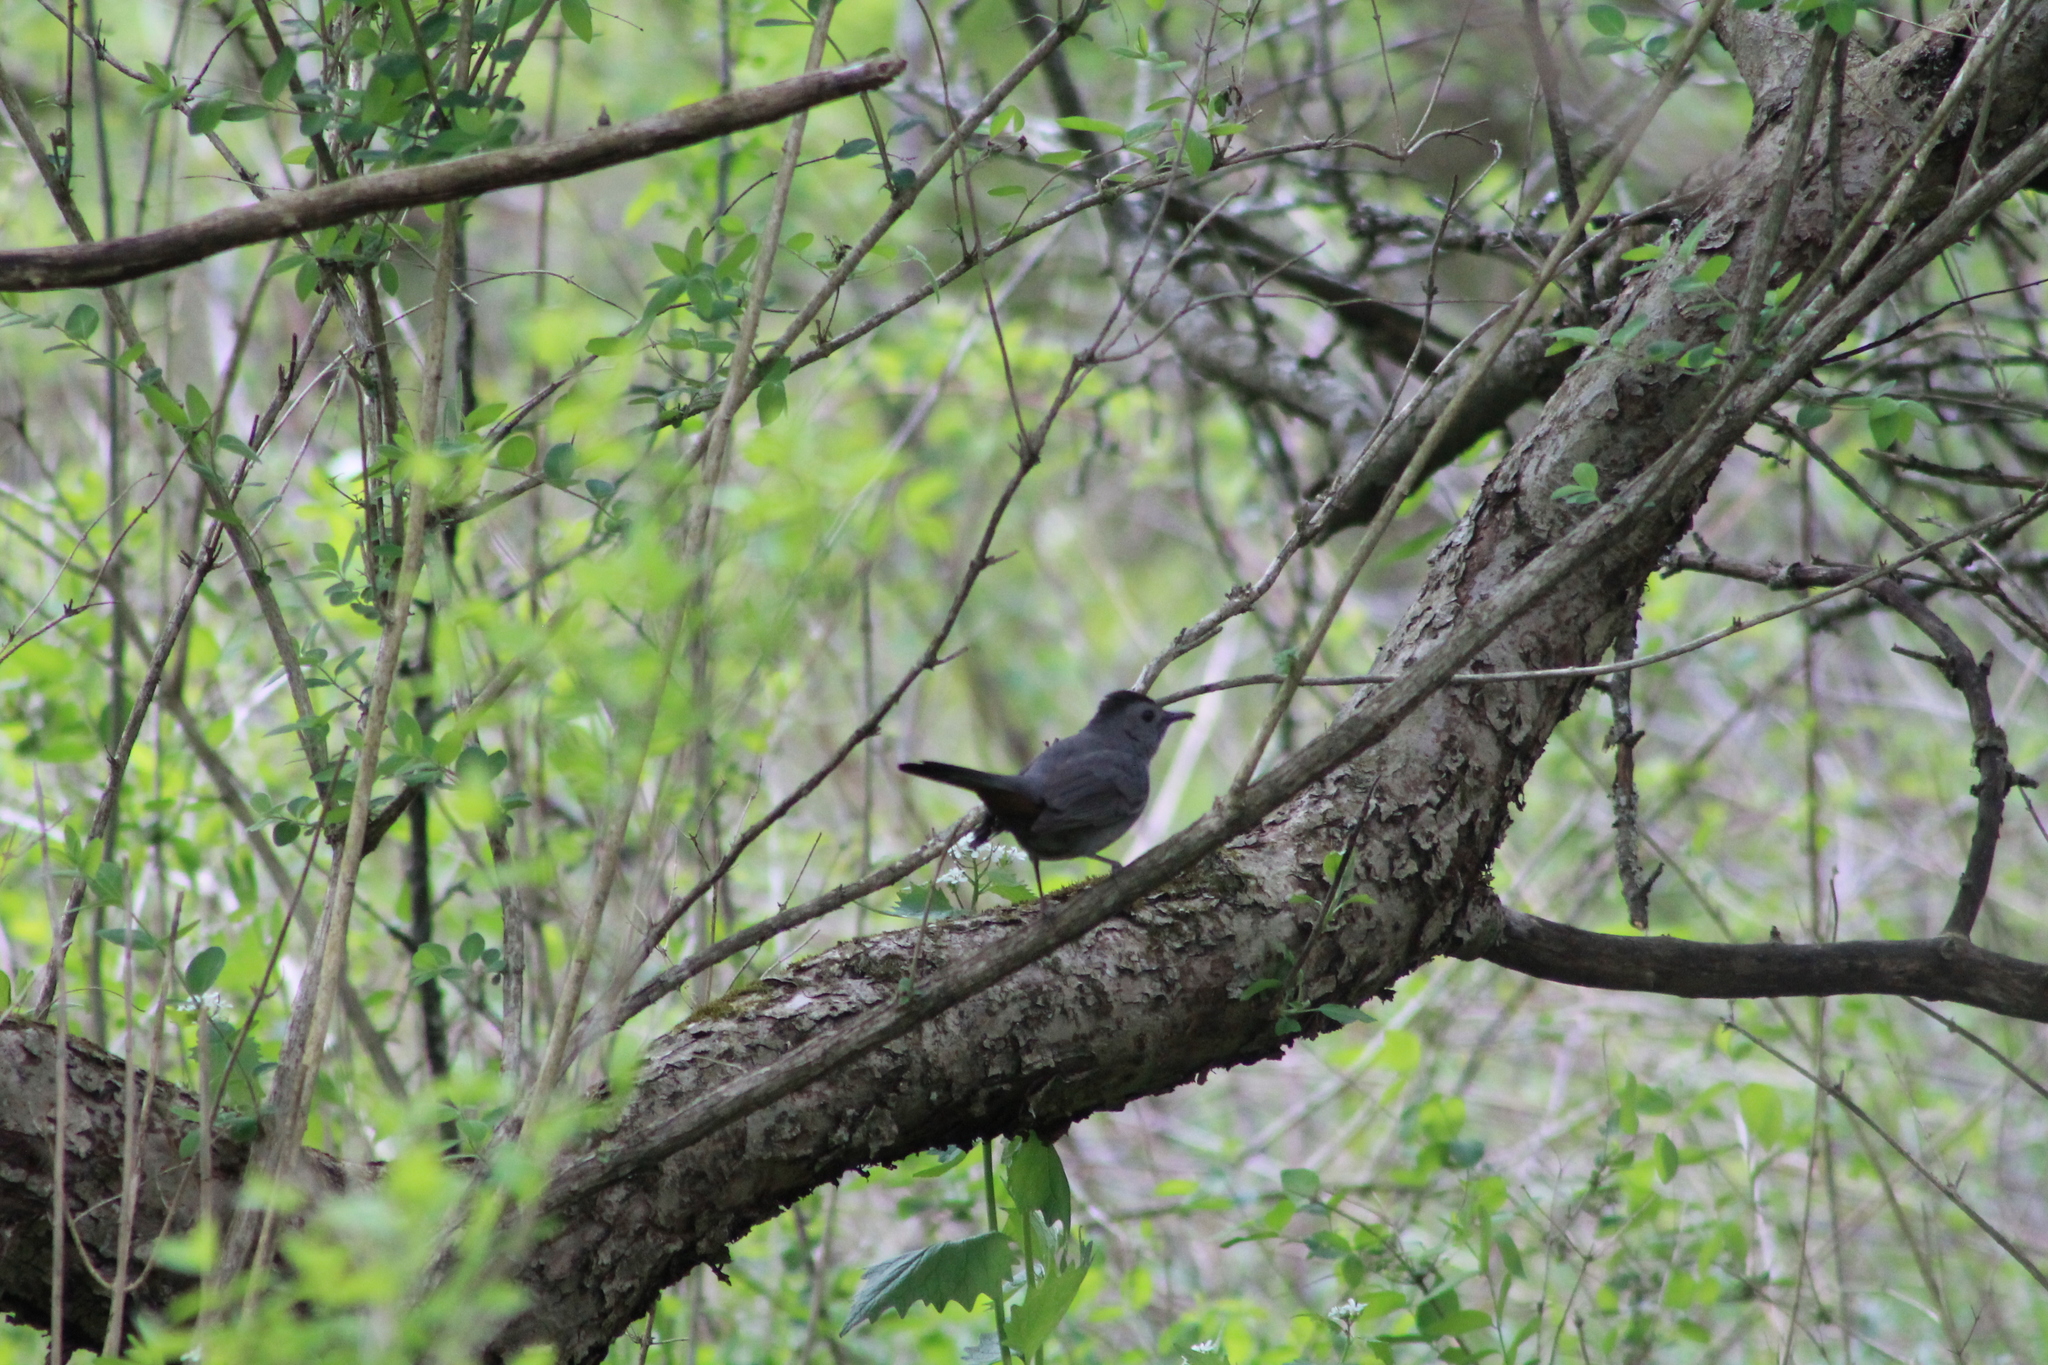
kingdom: Animalia
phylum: Chordata
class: Aves
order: Passeriformes
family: Mimidae
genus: Dumetella
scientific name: Dumetella carolinensis
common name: Gray catbird
